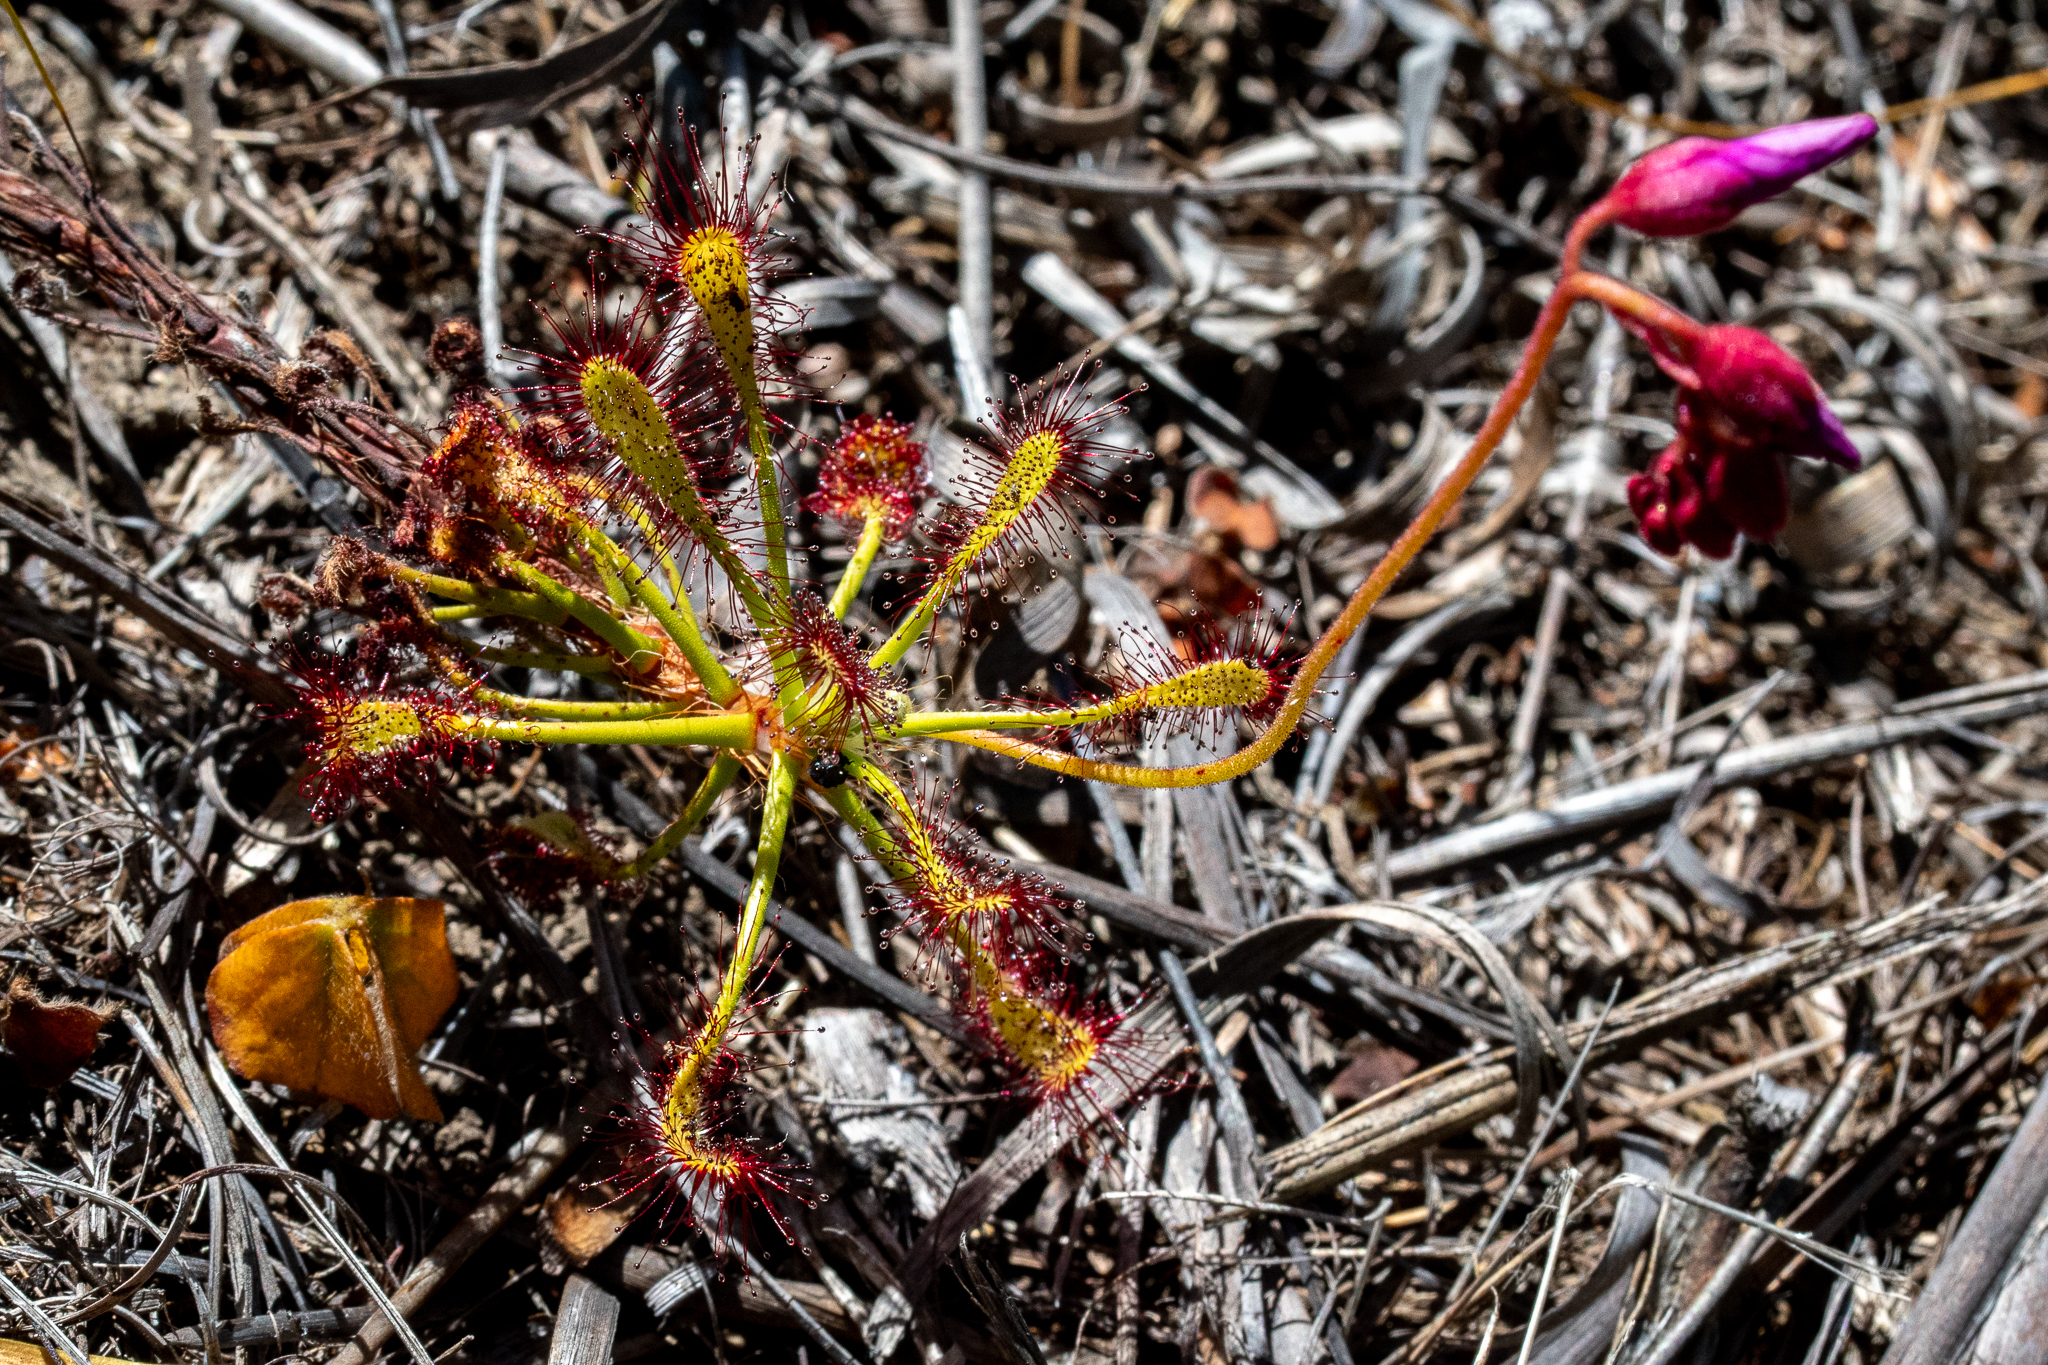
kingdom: Plantae
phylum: Tracheophyta
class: Magnoliopsida
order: Caryophyllales
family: Droseraceae
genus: Drosera
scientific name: Drosera glabripes
